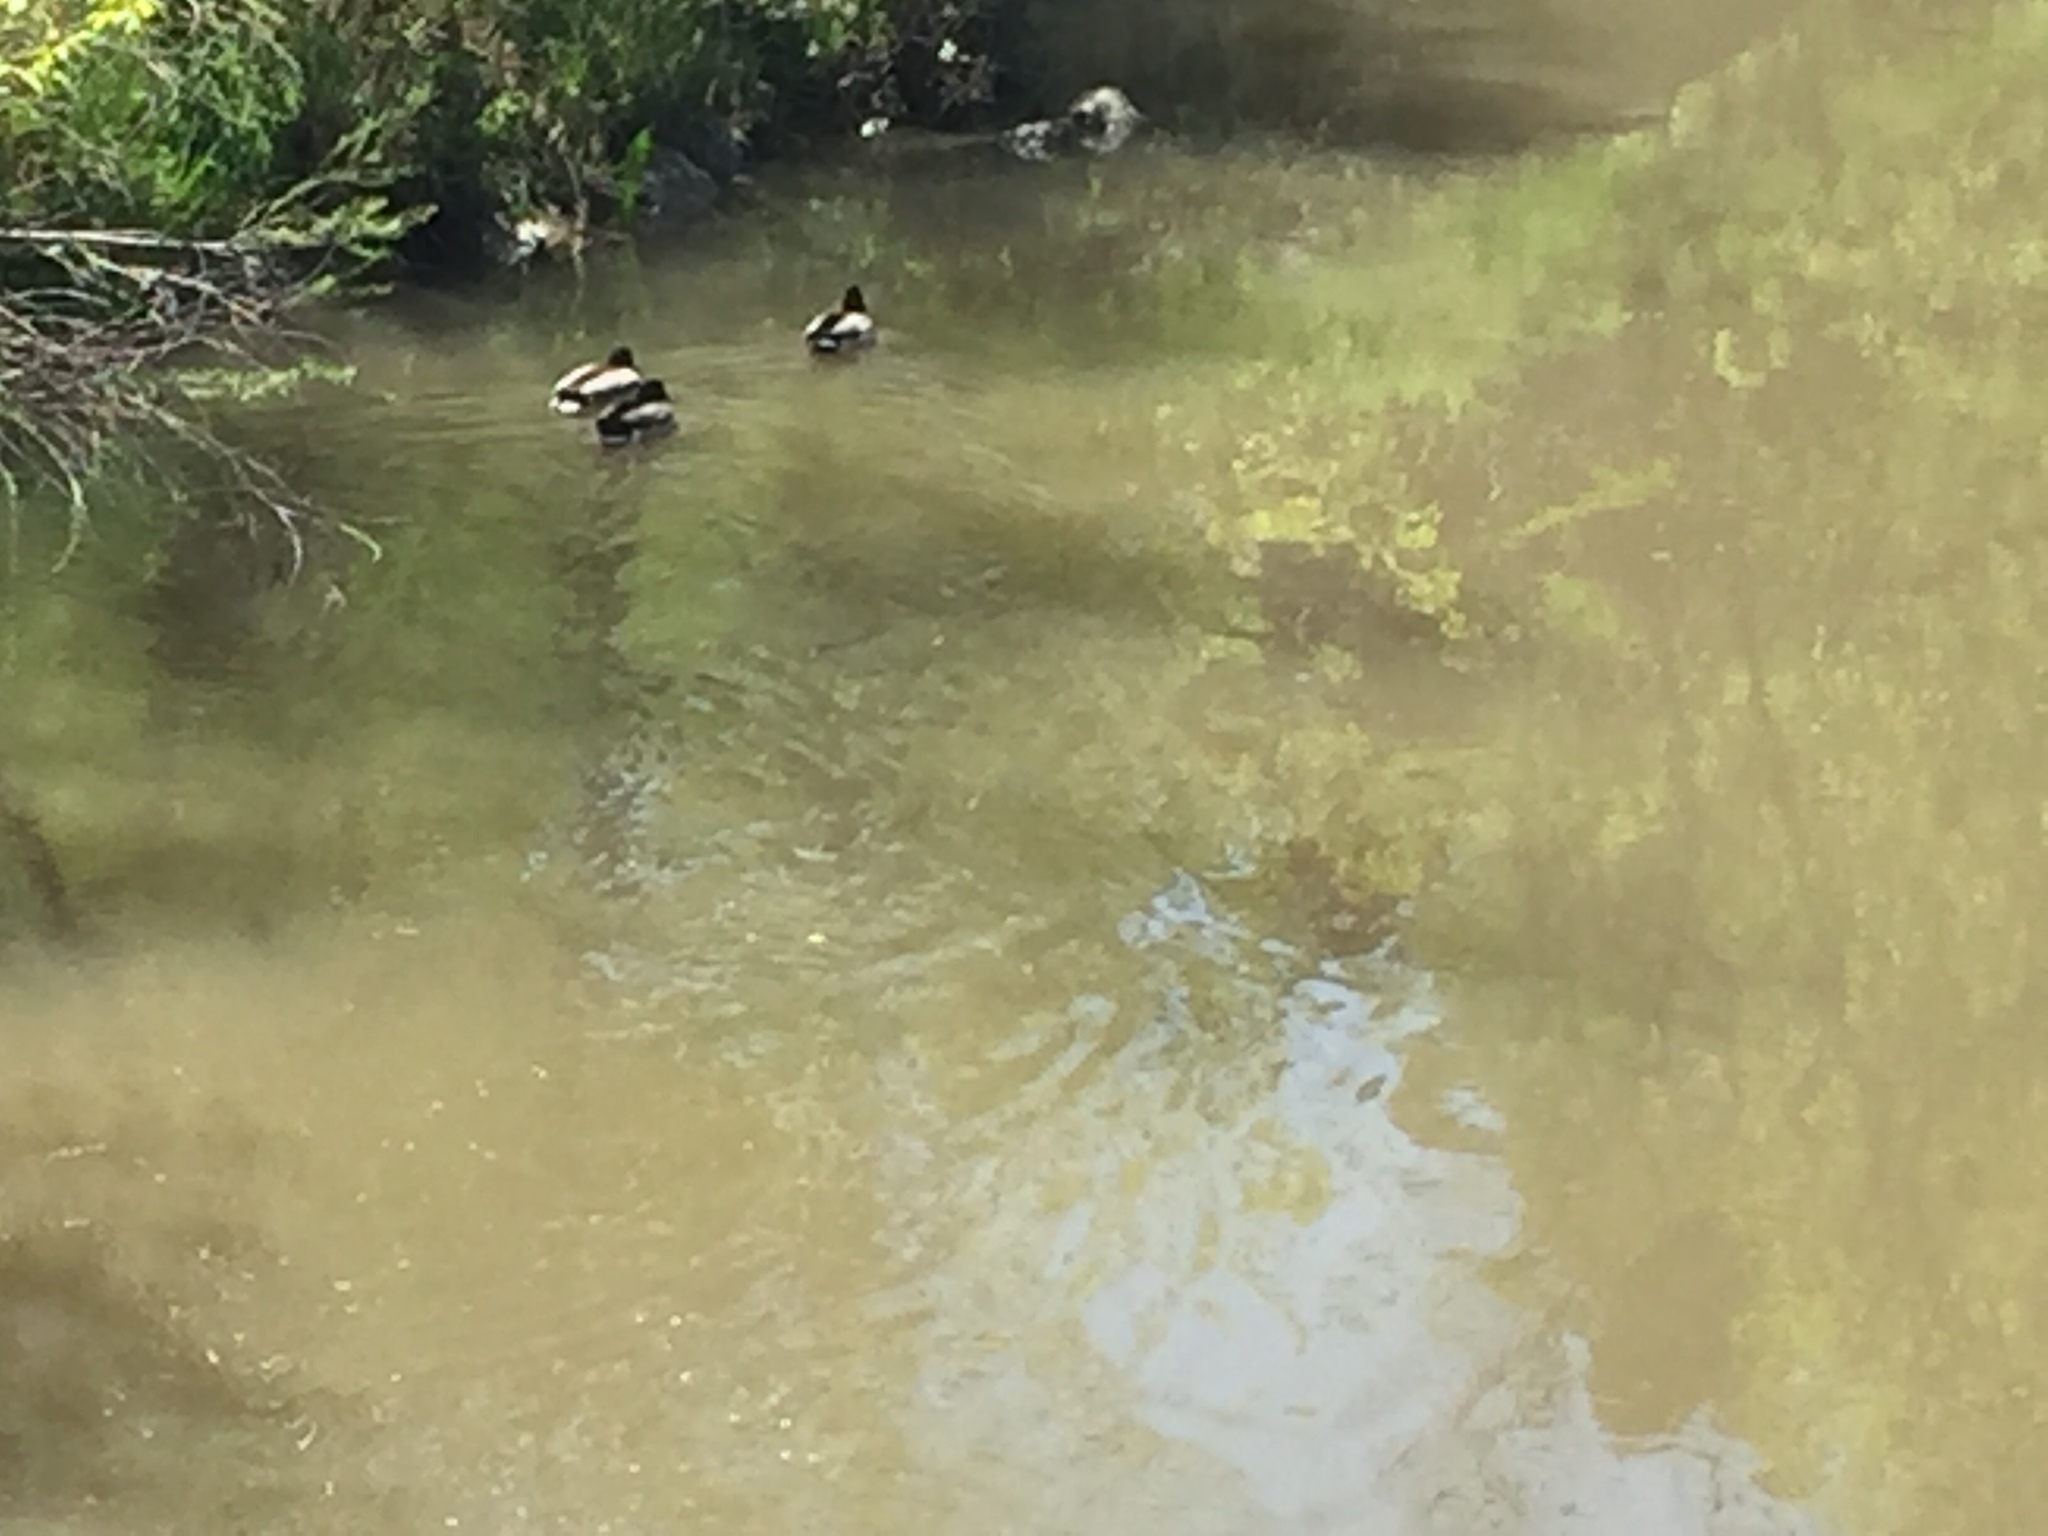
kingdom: Animalia
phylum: Chordata
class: Aves
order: Anseriformes
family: Anatidae
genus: Anas
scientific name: Anas platyrhynchos
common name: Mallard
